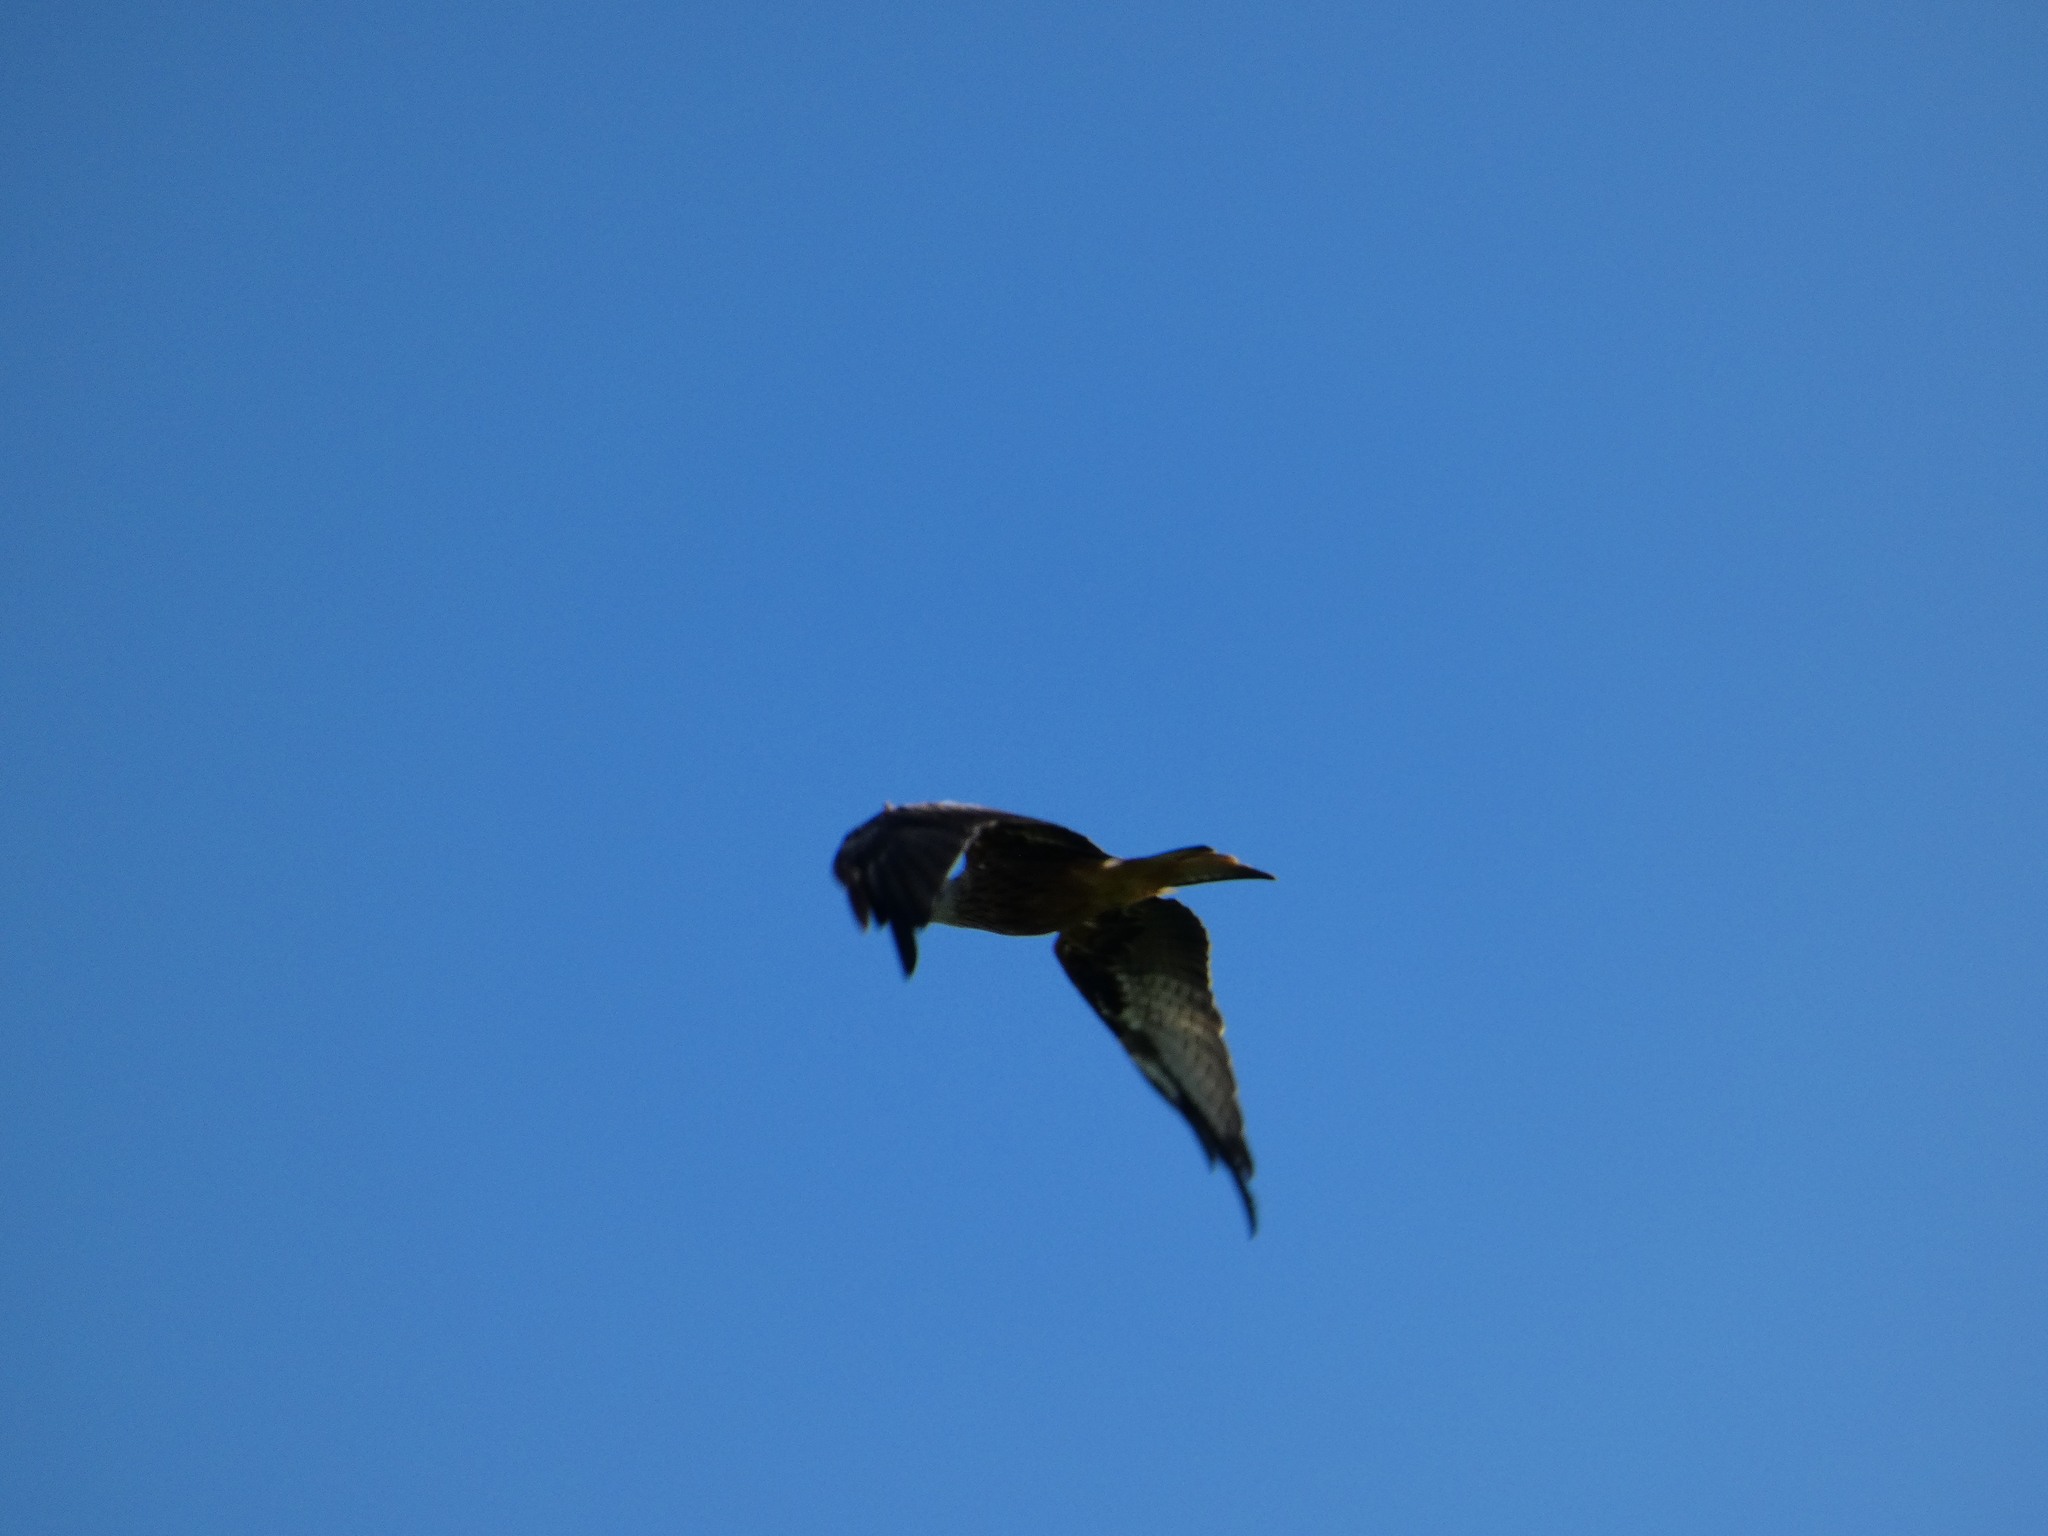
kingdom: Animalia
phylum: Chordata
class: Aves
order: Accipitriformes
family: Accipitridae
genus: Milvus
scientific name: Milvus milvus
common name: Red kite
